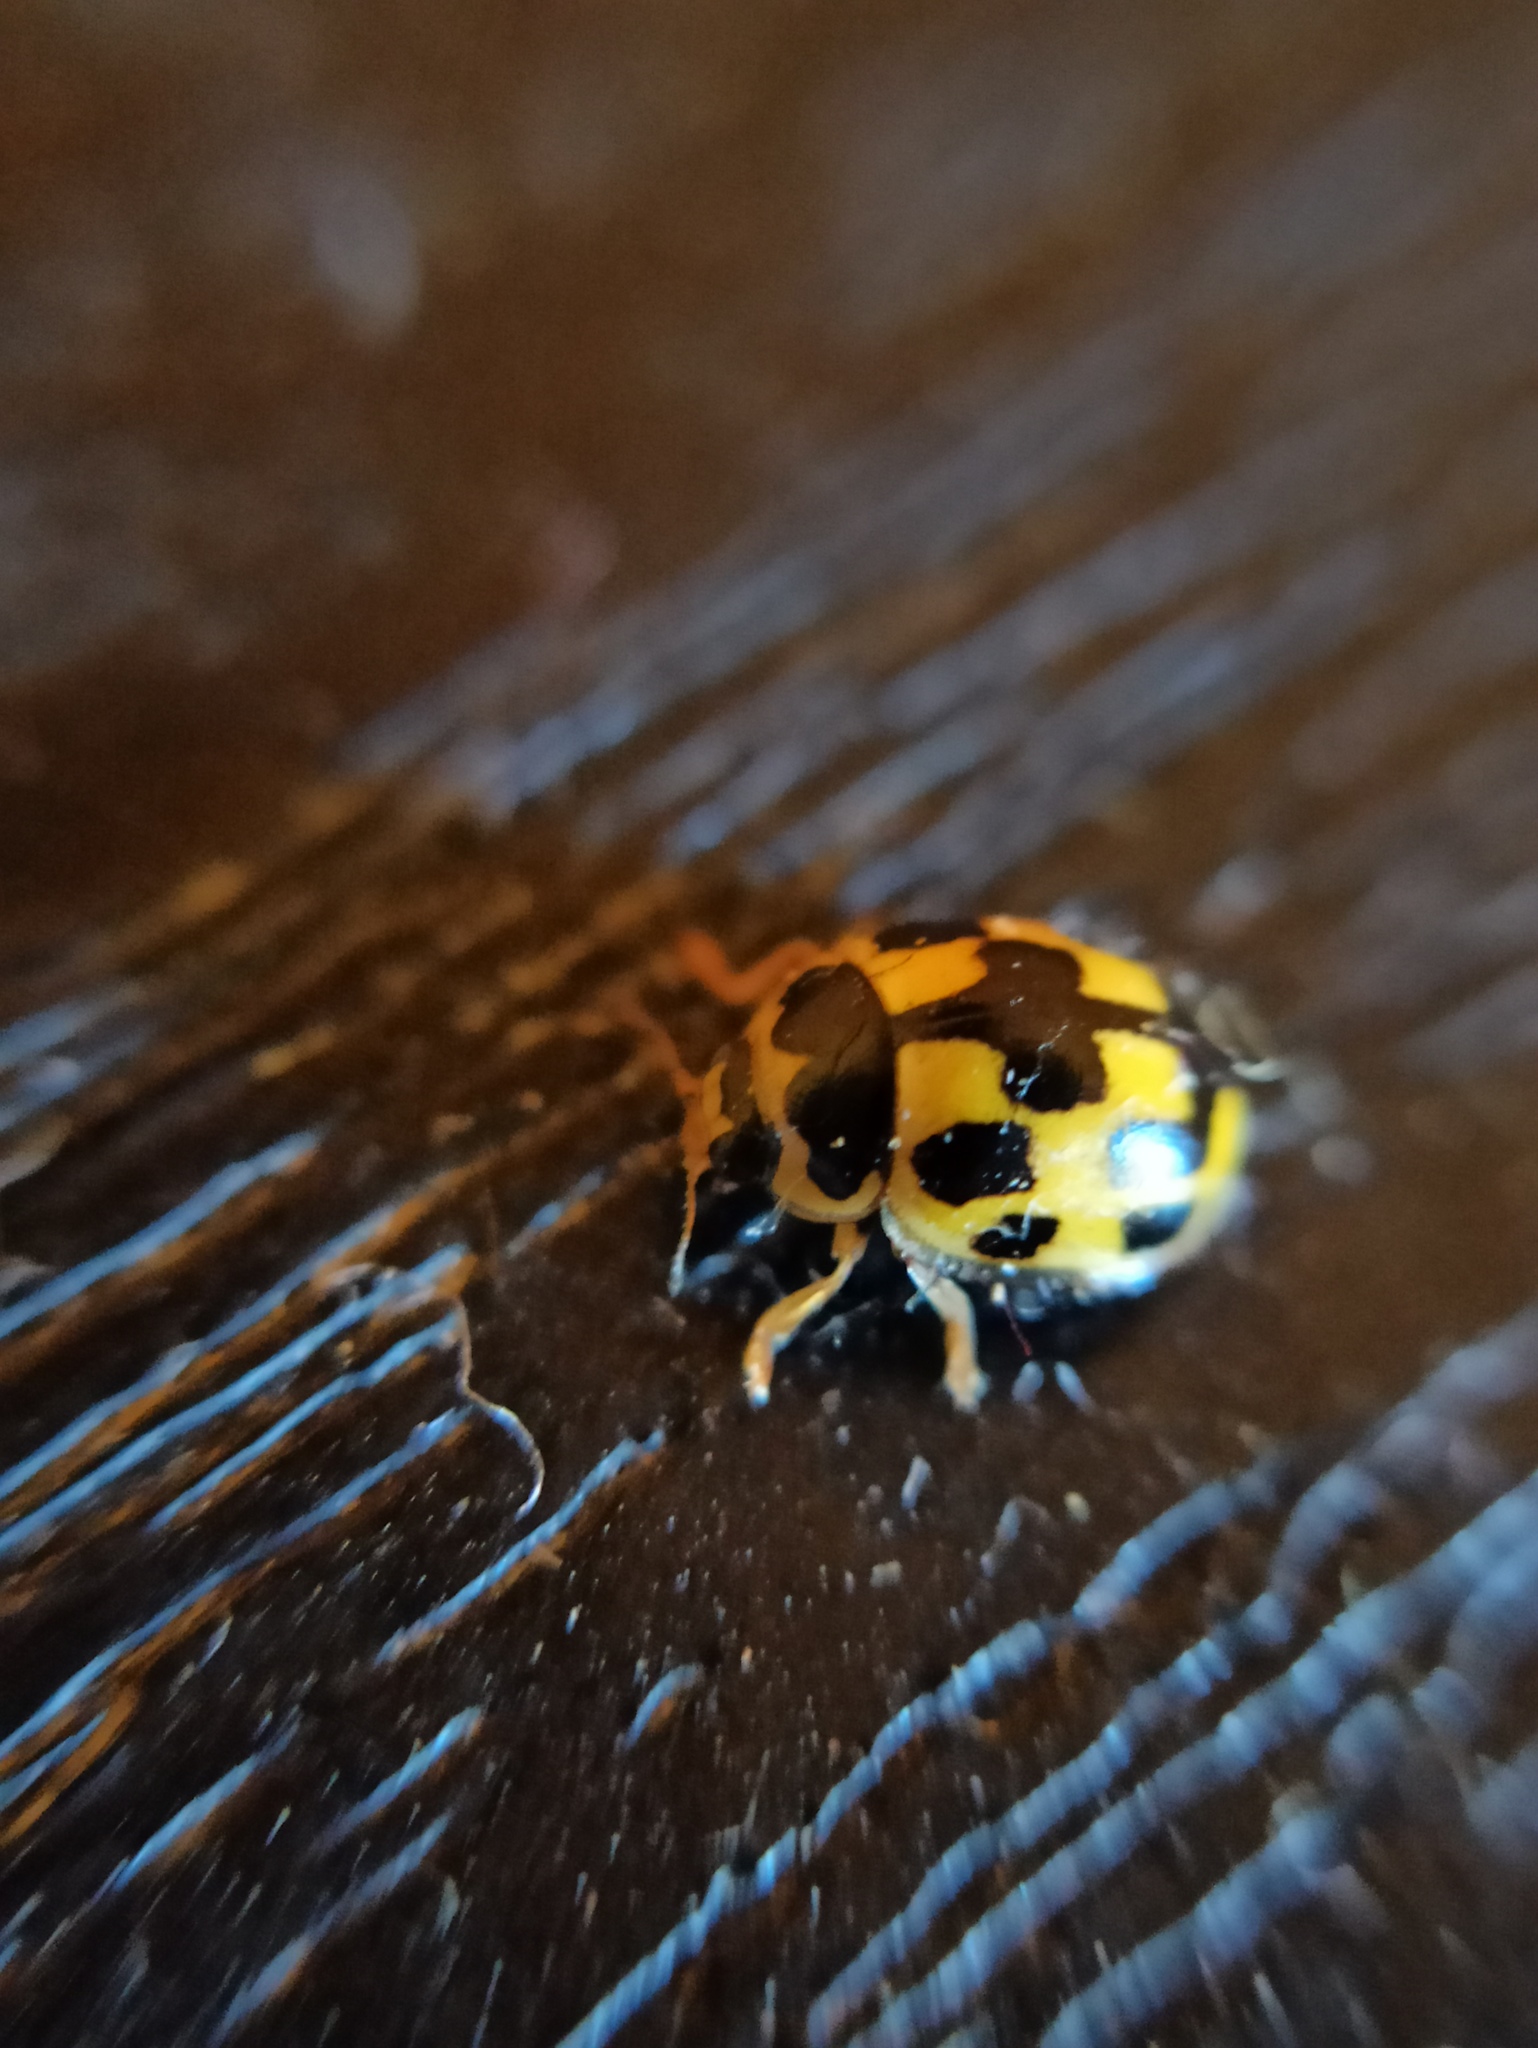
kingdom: Animalia
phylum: Arthropoda
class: Insecta
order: Coleoptera
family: Coccinellidae
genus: Propylaea
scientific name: Propylaea quatuordecimpunctata
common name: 14-spotted ladybird beetle
